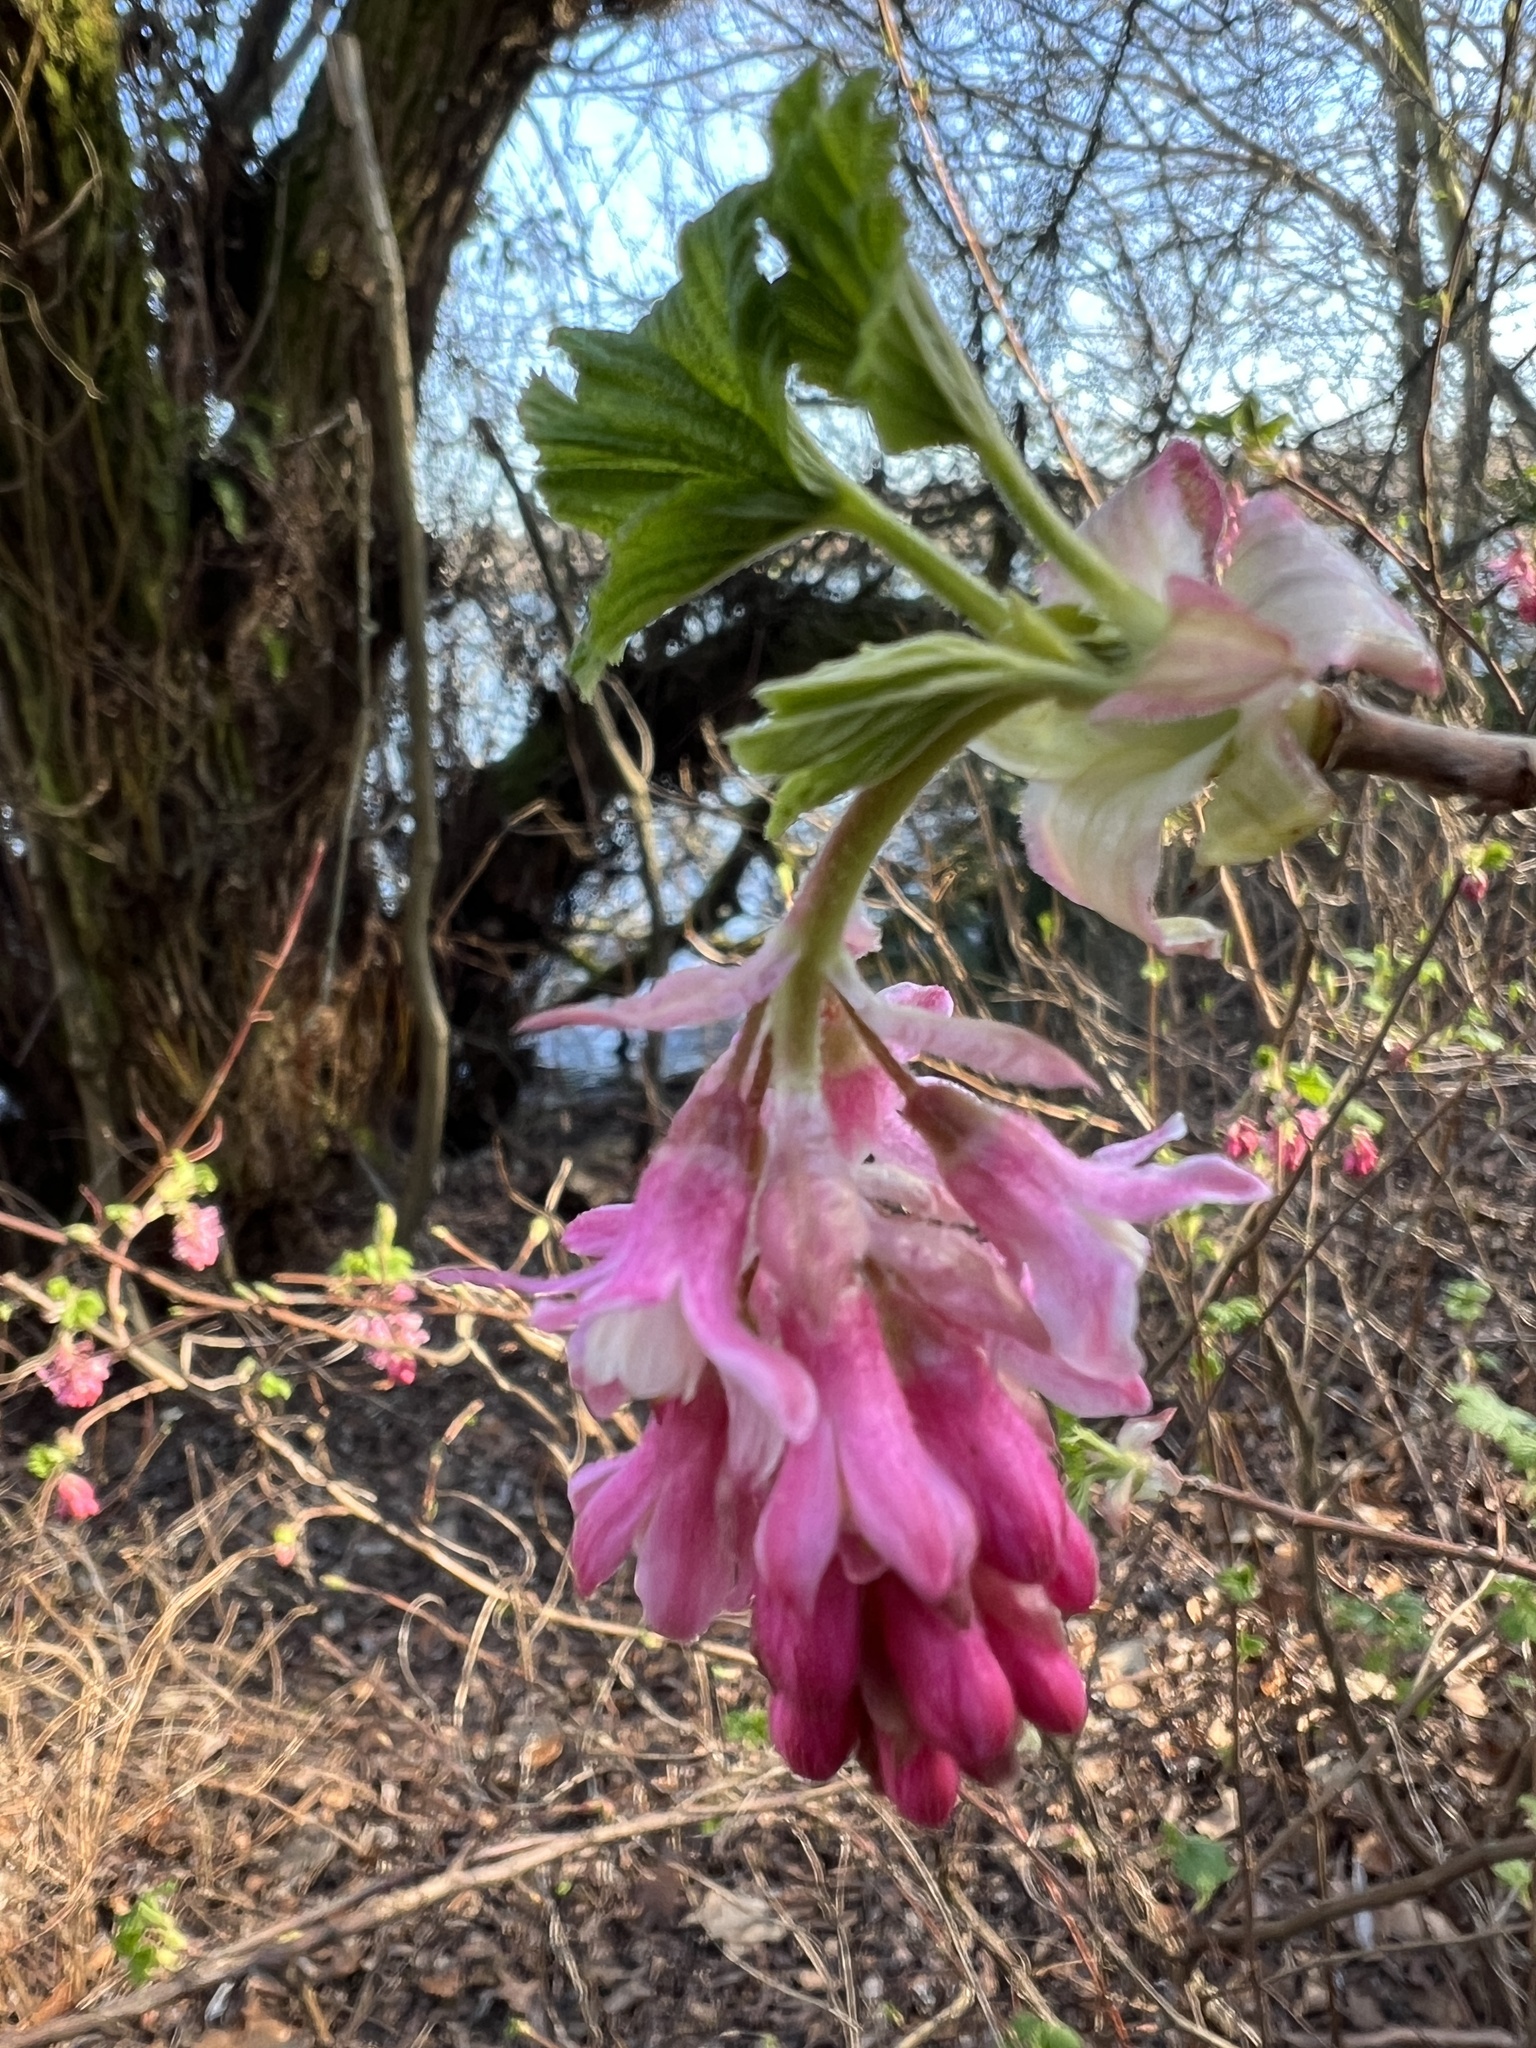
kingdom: Plantae
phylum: Tracheophyta
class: Magnoliopsida
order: Saxifragales
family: Grossulariaceae
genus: Ribes
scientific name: Ribes sanguineum
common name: Flowering currant
